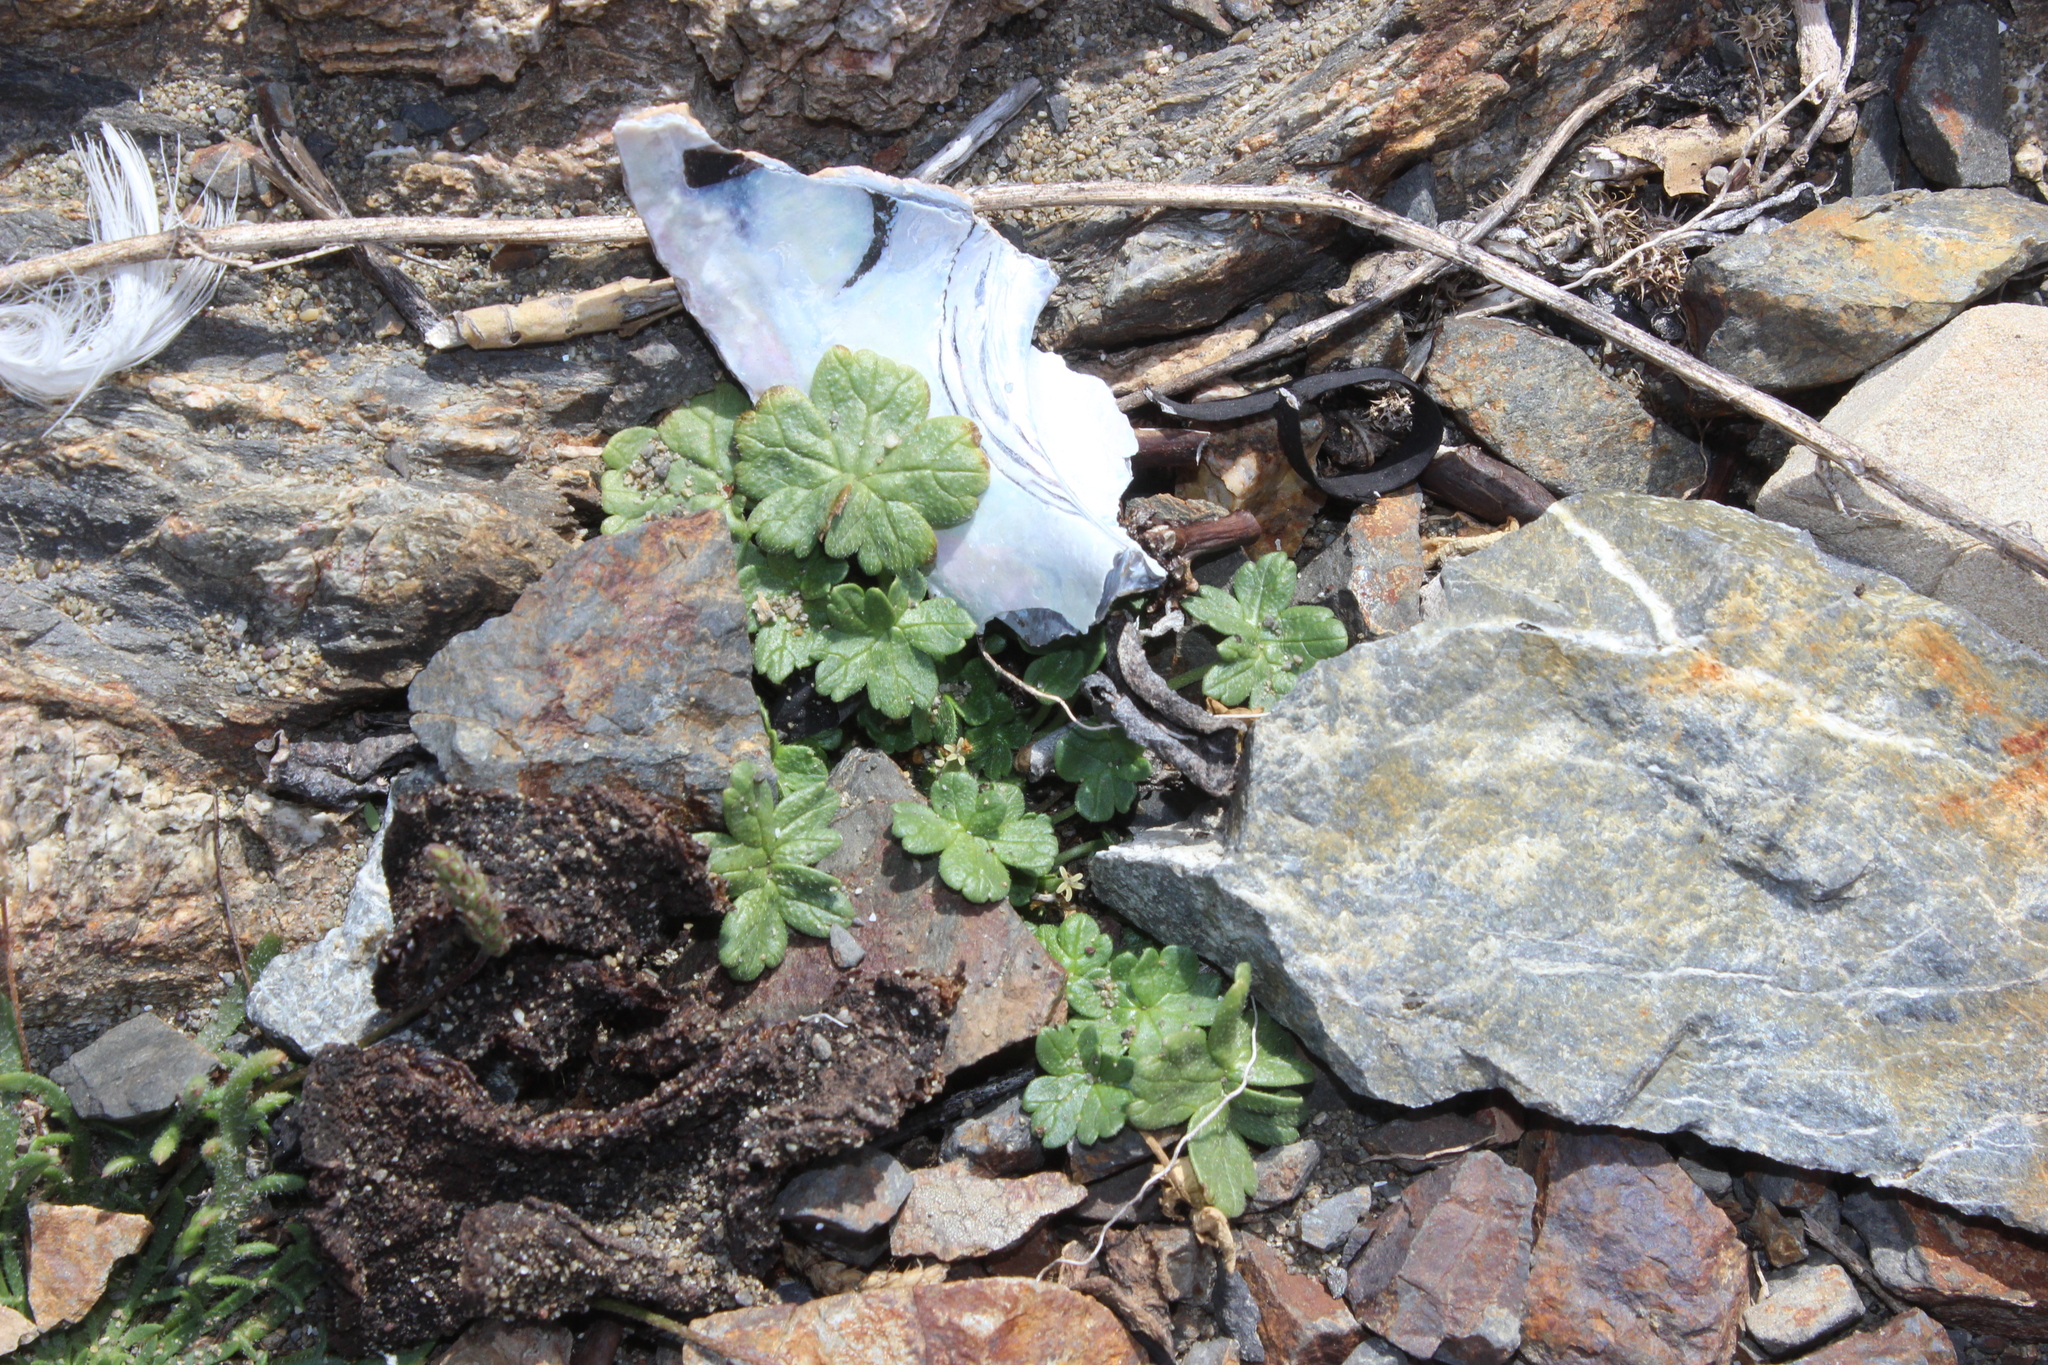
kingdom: Plantae
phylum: Tracheophyta
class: Magnoliopsida
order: Geraniales
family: Geraniaceae
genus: Geranium
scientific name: Geranium brevicaule
